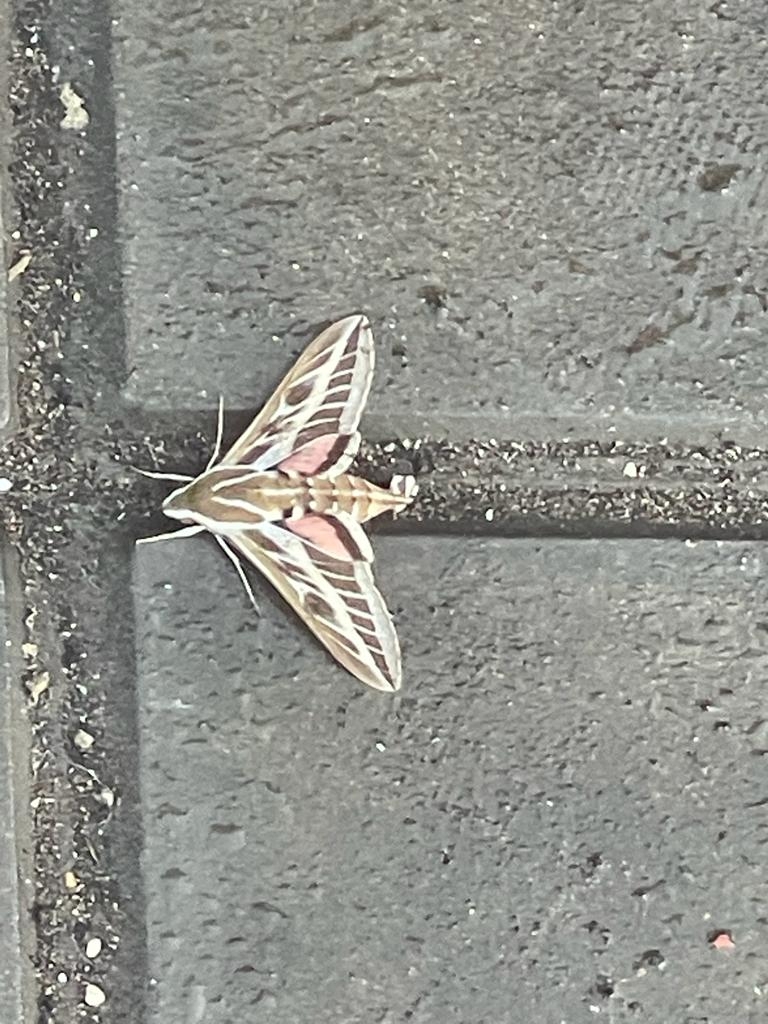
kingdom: Animalia
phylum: Arthropoda
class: Insecta
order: Lepidoptera
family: Sphingidae
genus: Hyles
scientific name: Hyles livornica
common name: Striped hawk-moth
